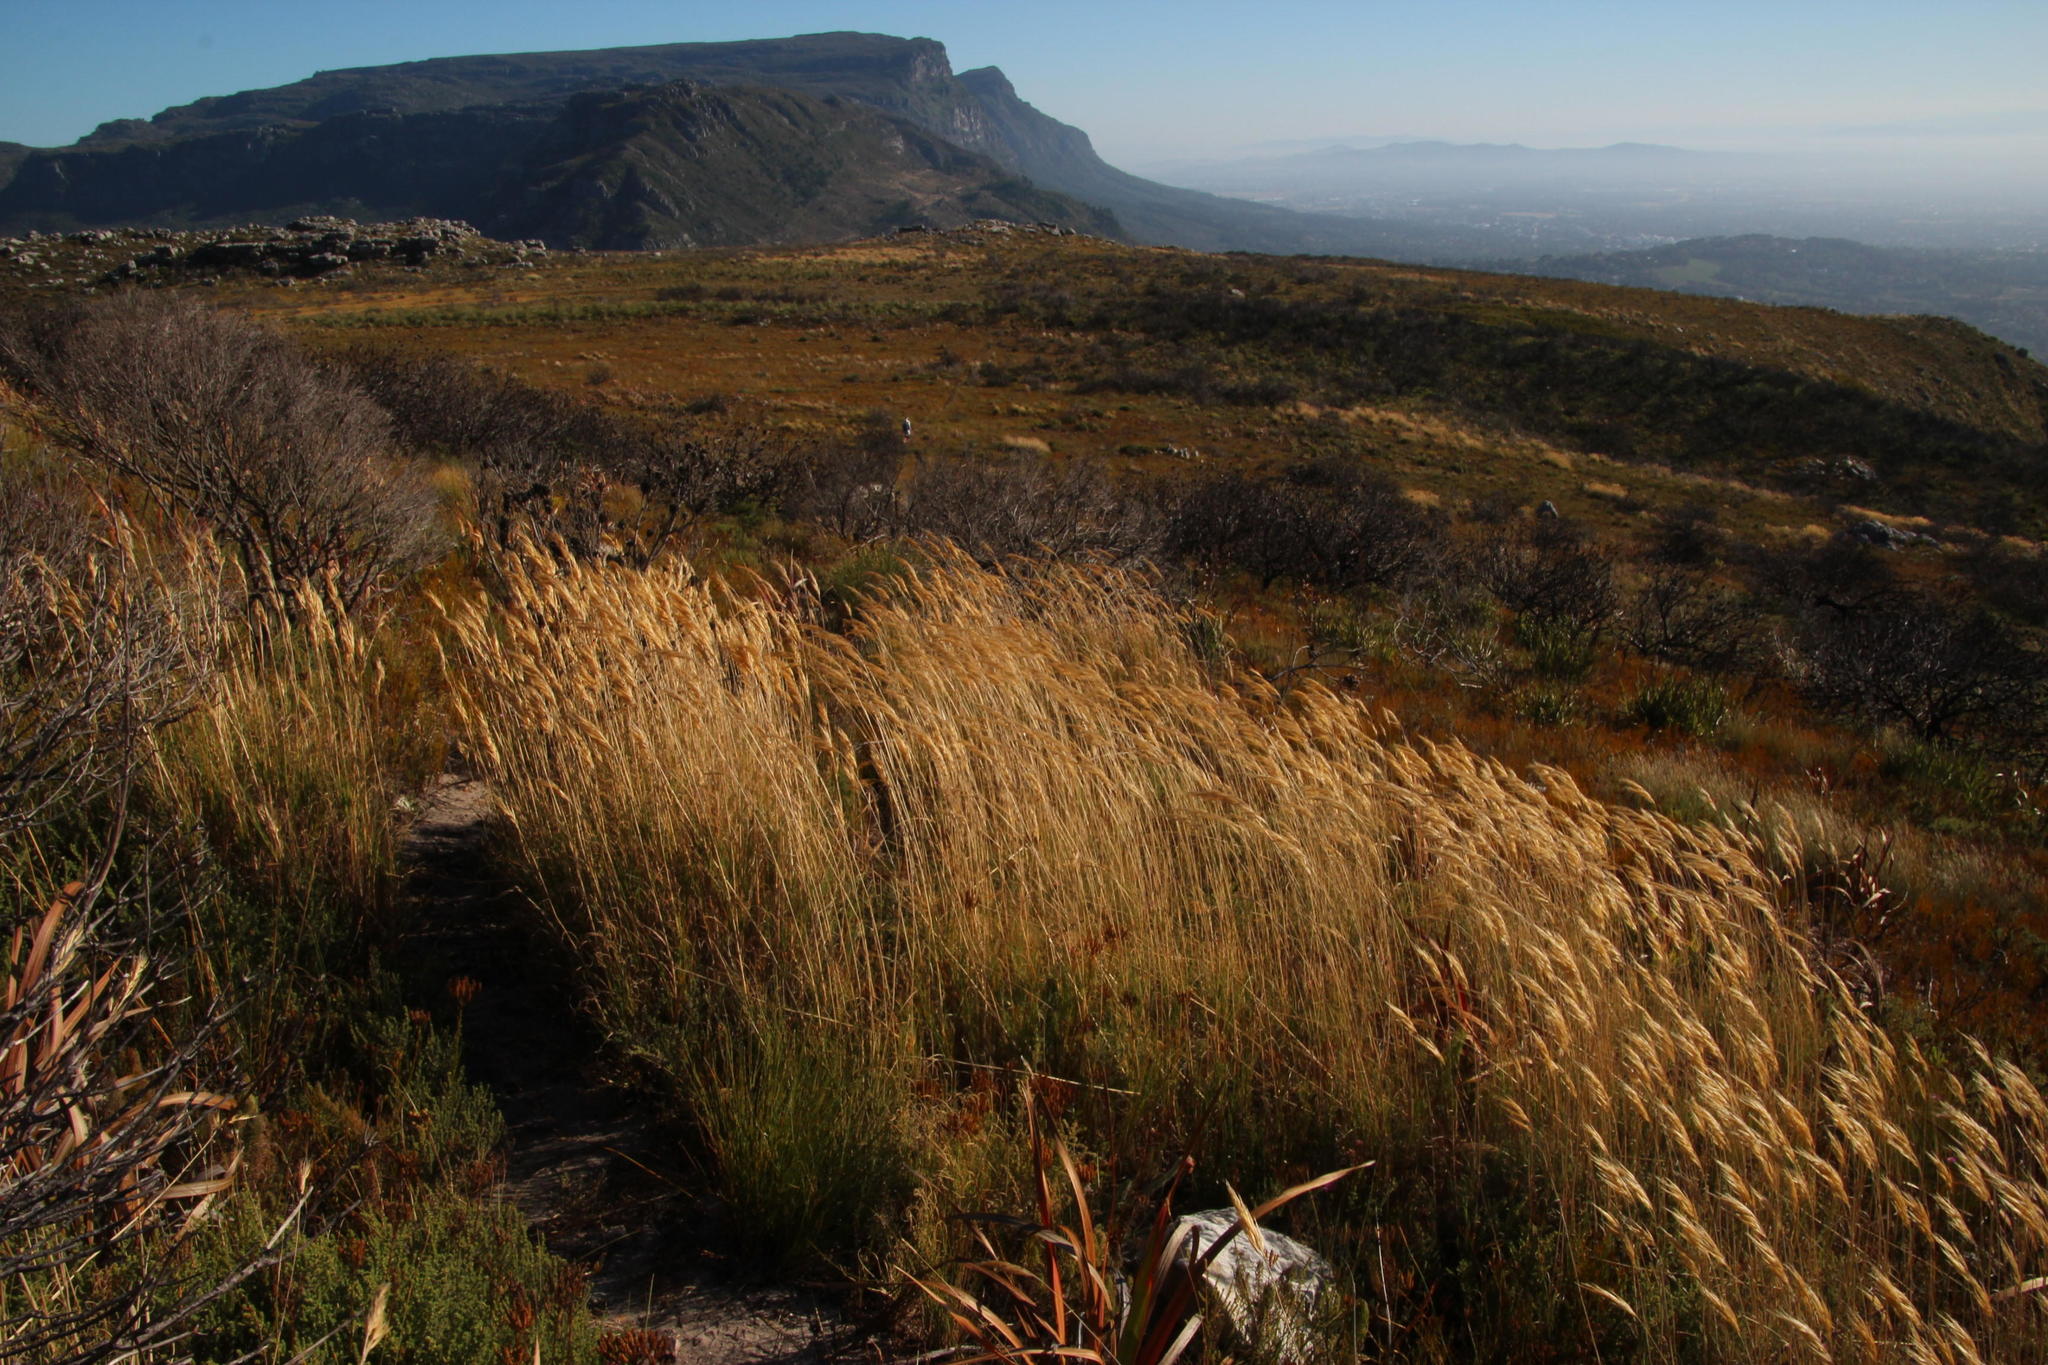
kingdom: Plantae
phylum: Tracheophyta
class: Liliopsida
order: Poales
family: Poaceae
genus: Pseudopentameris
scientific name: Pseudopentameris macrantha
